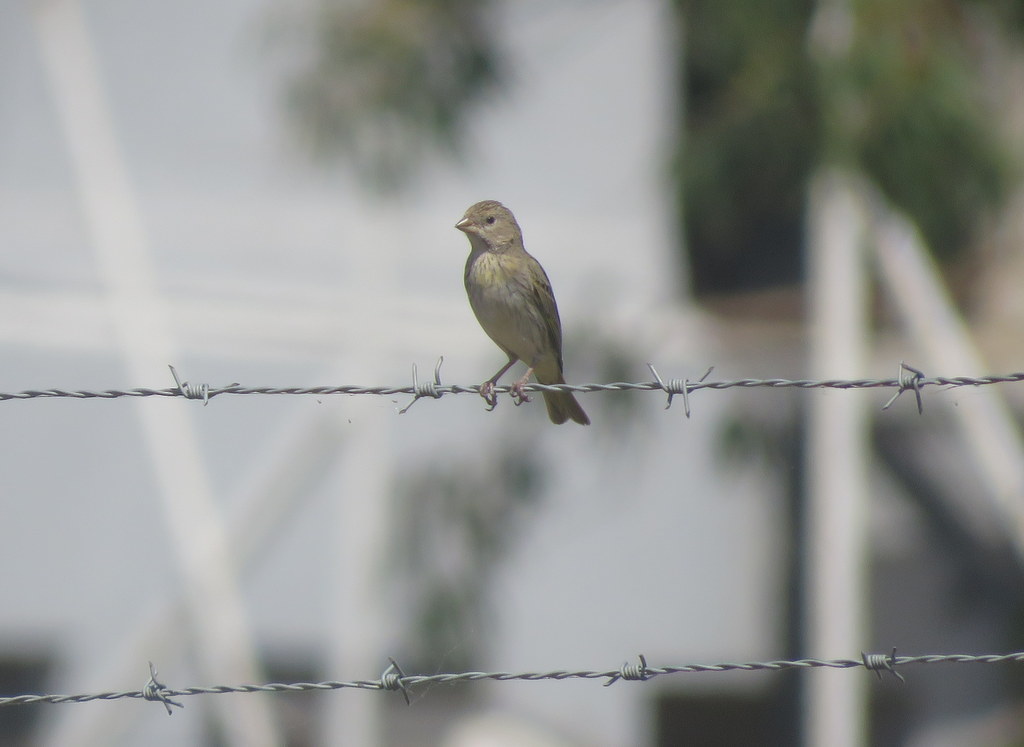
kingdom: Animalia
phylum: Chordata
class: Aves
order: Passeriformes
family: Thraupidae
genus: Sicalis
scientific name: Sicalis flaveola
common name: Saffron finch
